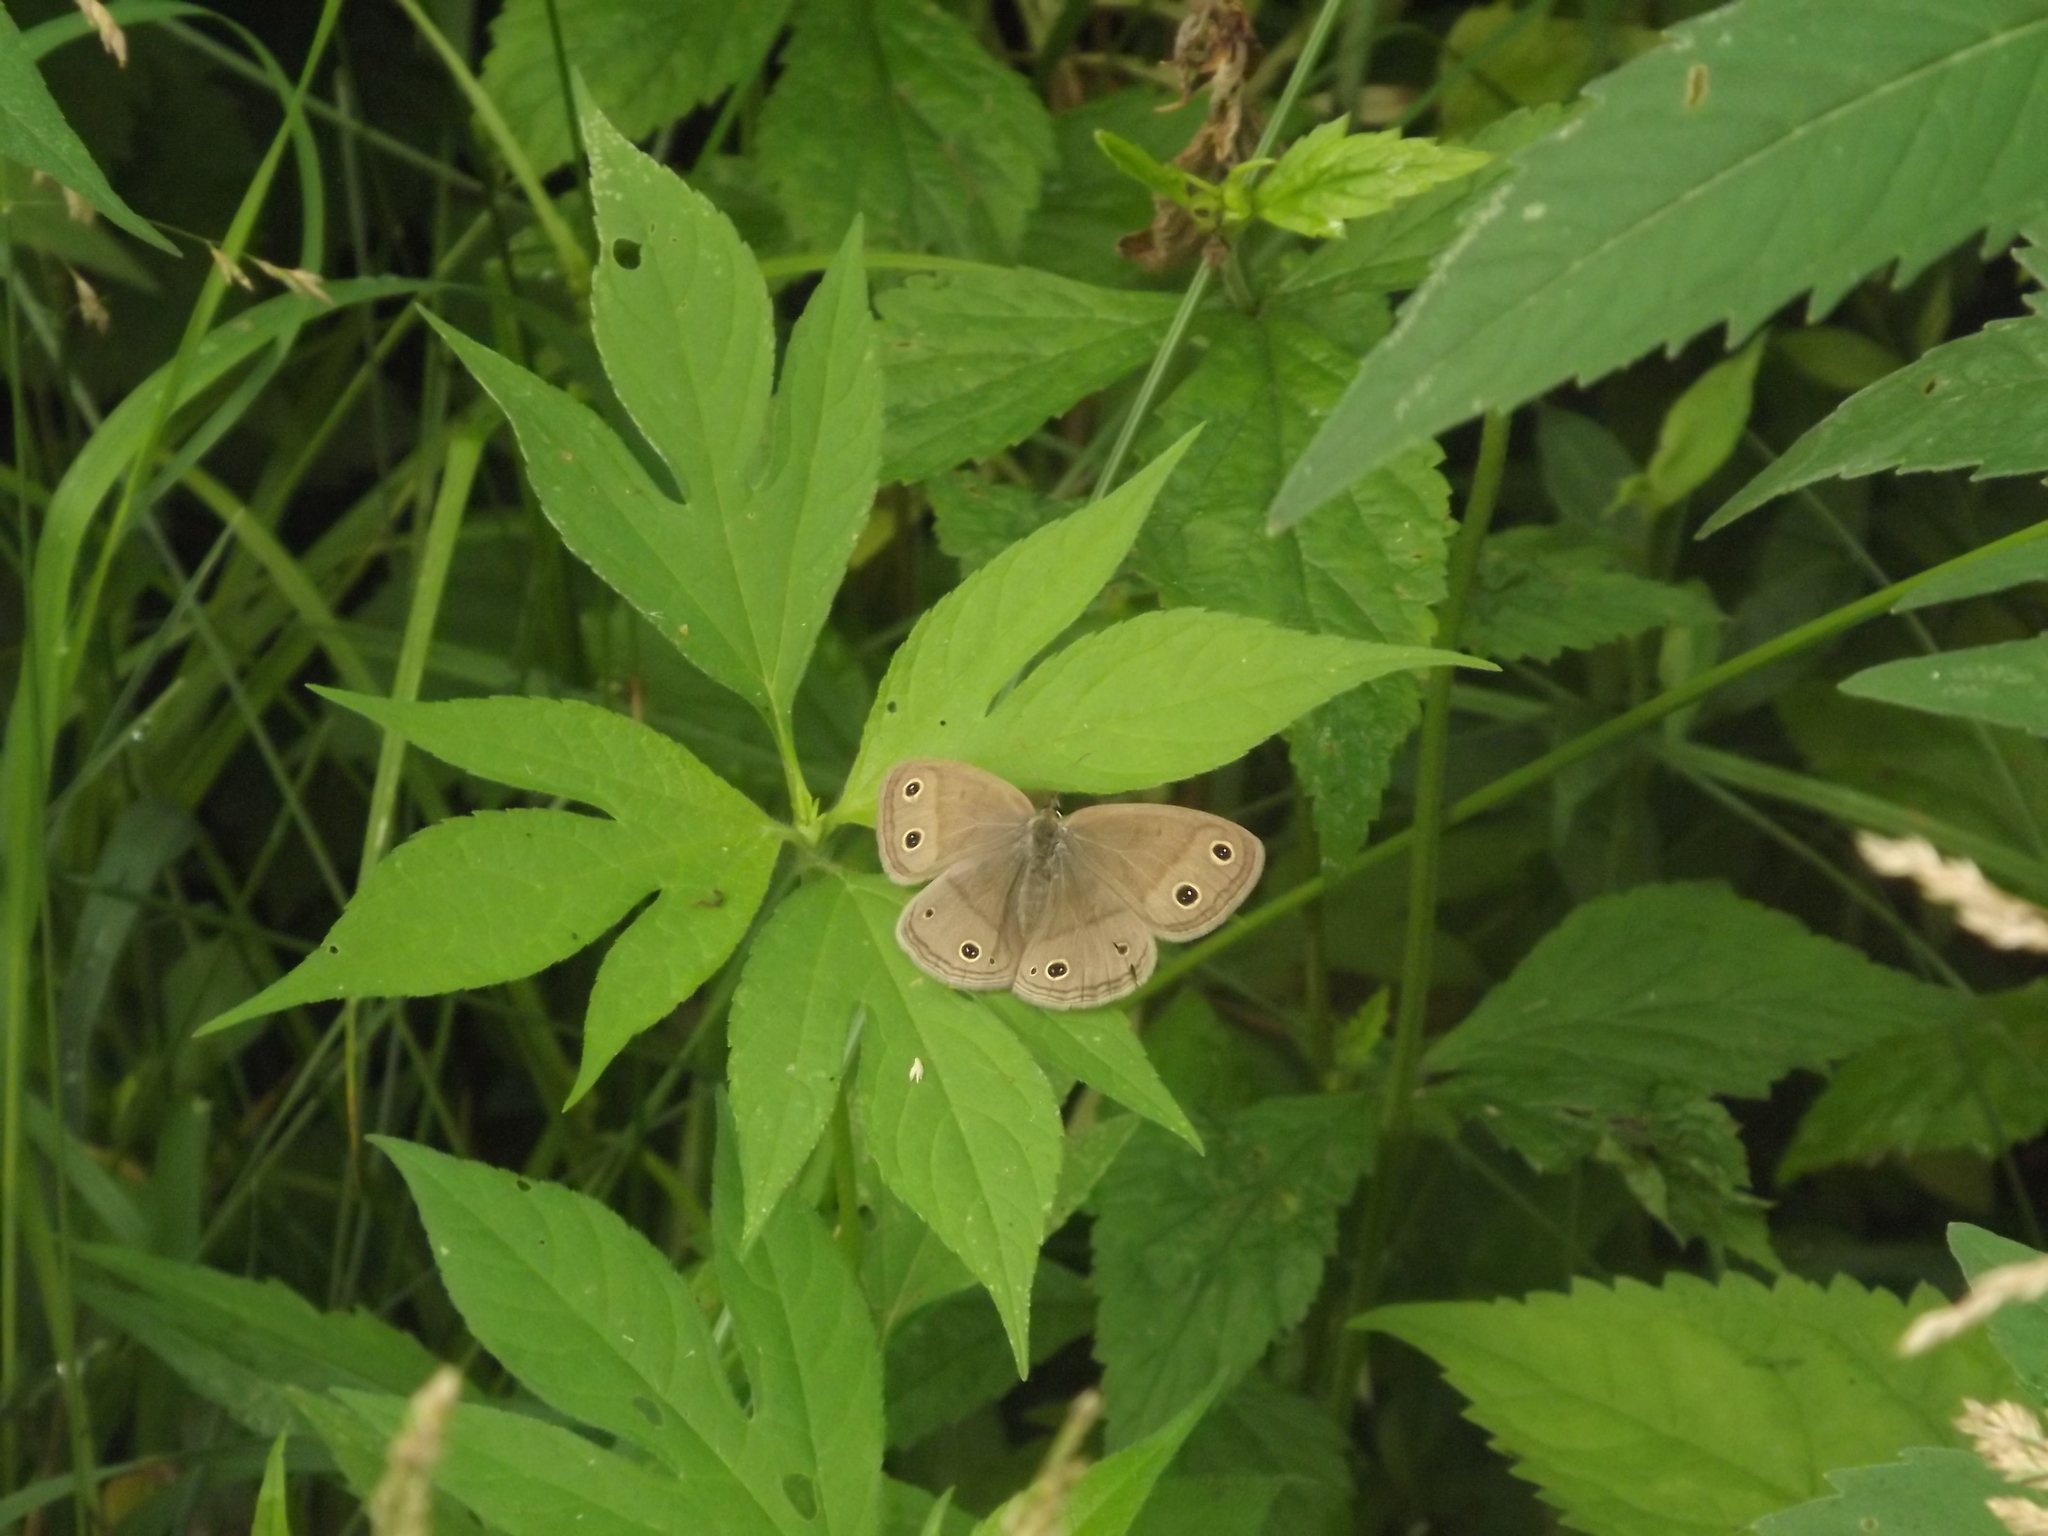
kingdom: Animalia
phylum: Arthropoda
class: Insecta
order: Lepidoptera
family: Nymphalidae
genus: Euptychia
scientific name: Euptychia cymela
